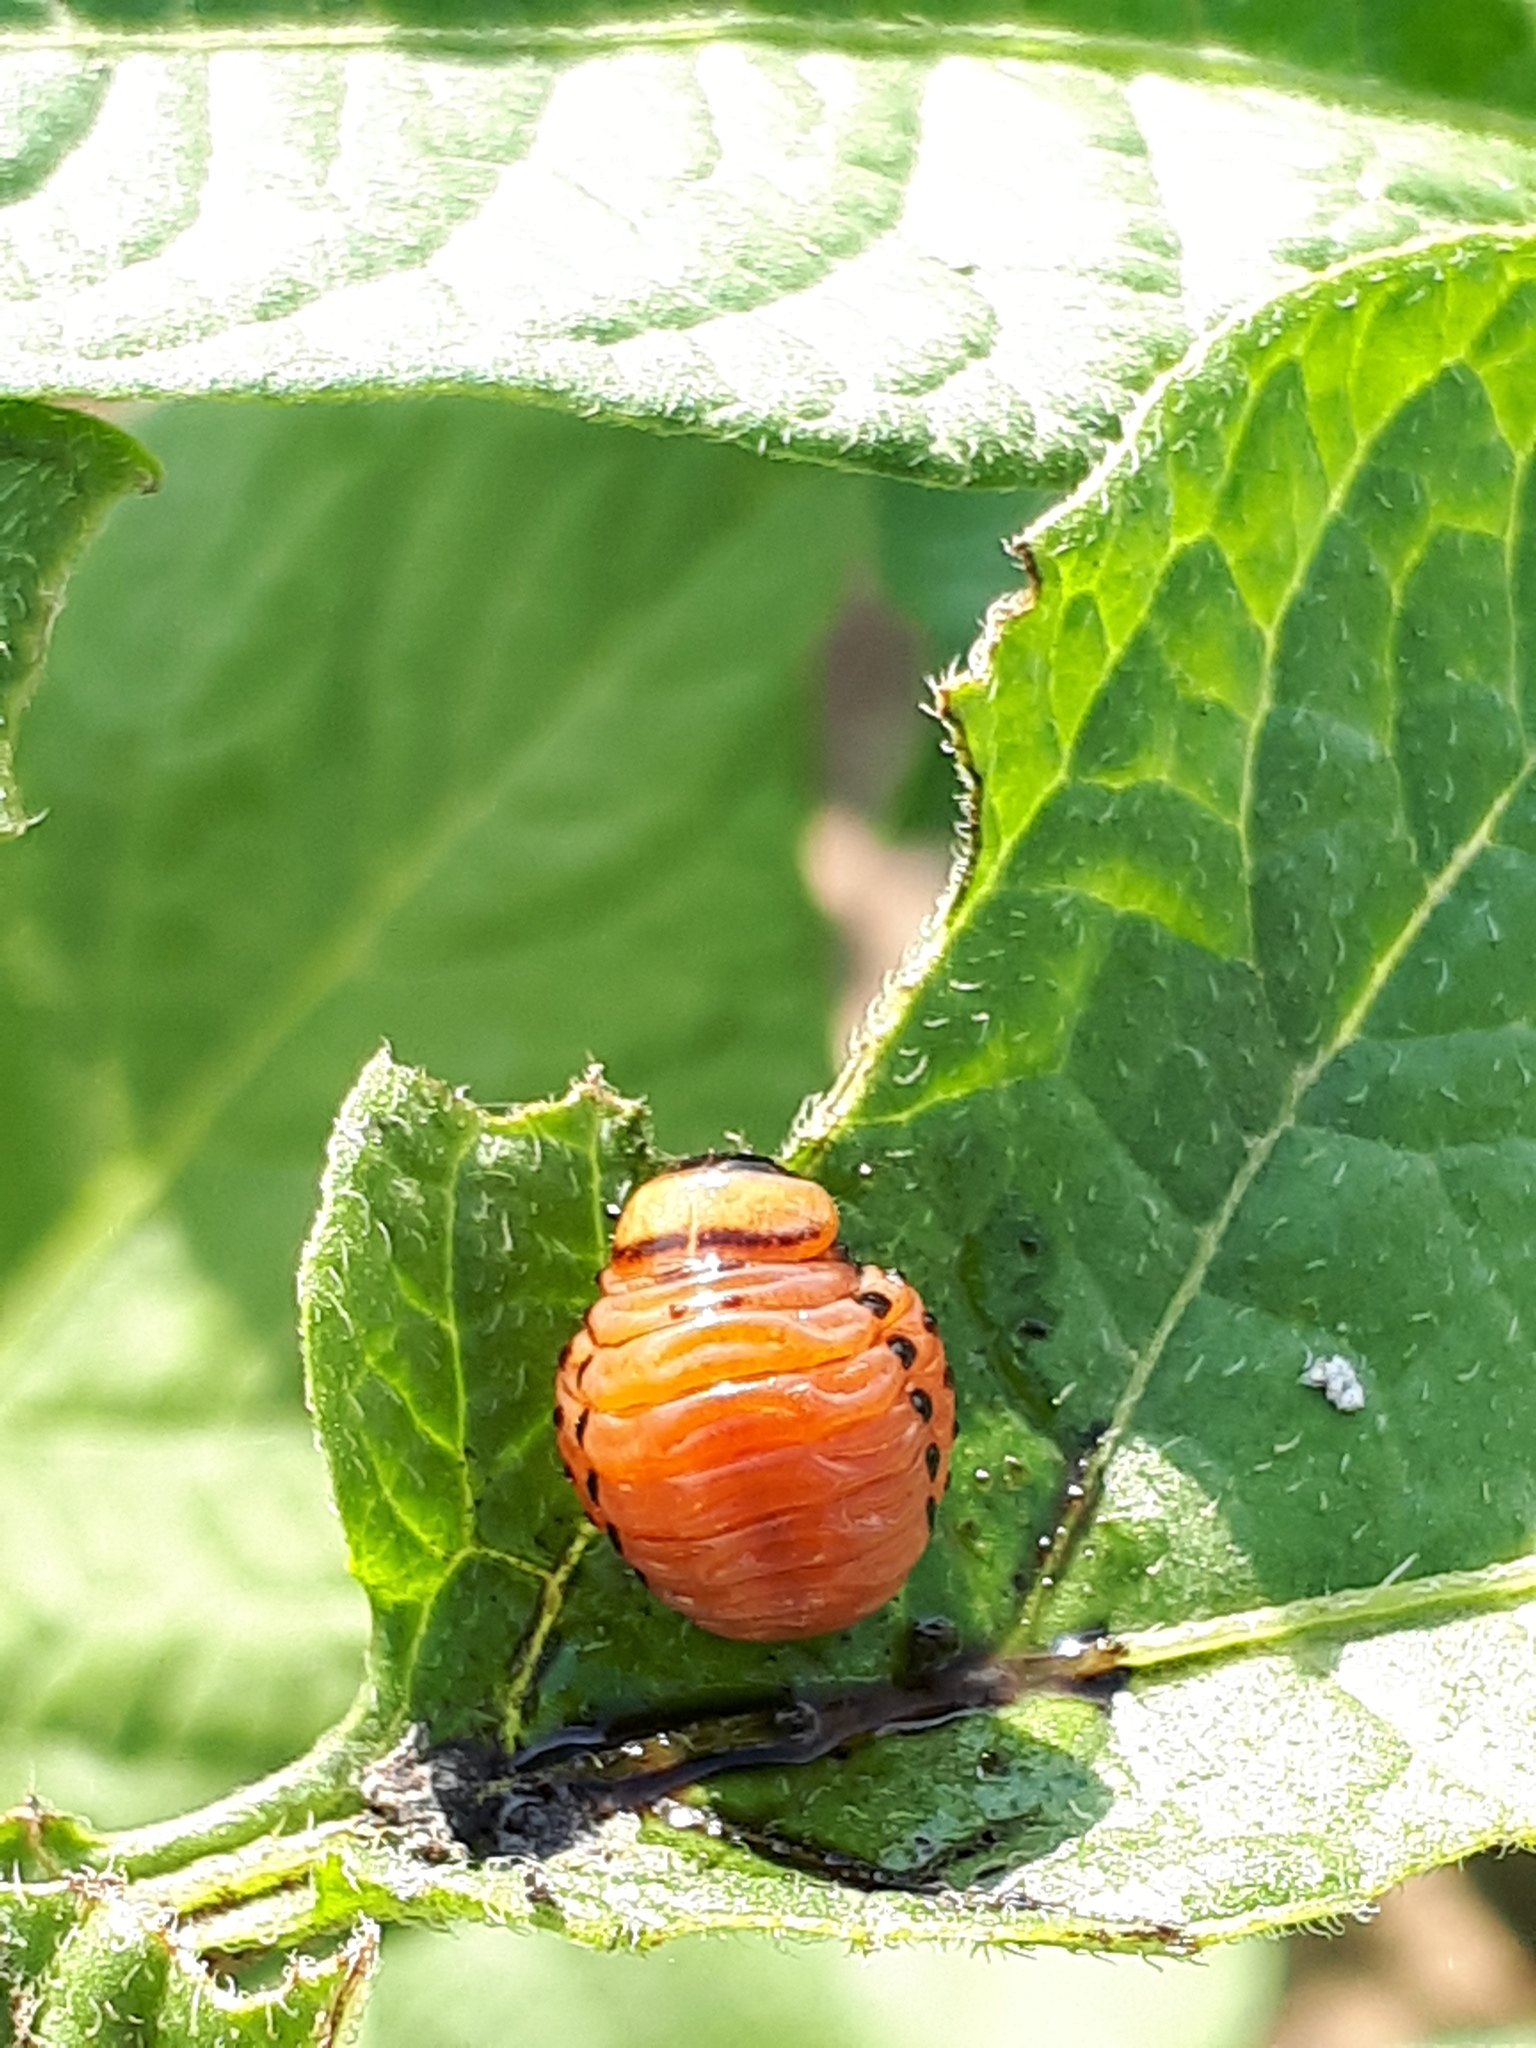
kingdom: Animalia
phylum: Arthropoda
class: Insecta
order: Coleoptera
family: Chrysomelidae
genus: Leptinotarsa
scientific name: Leptinotarsa decemlineata
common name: Colorado potato beetle
